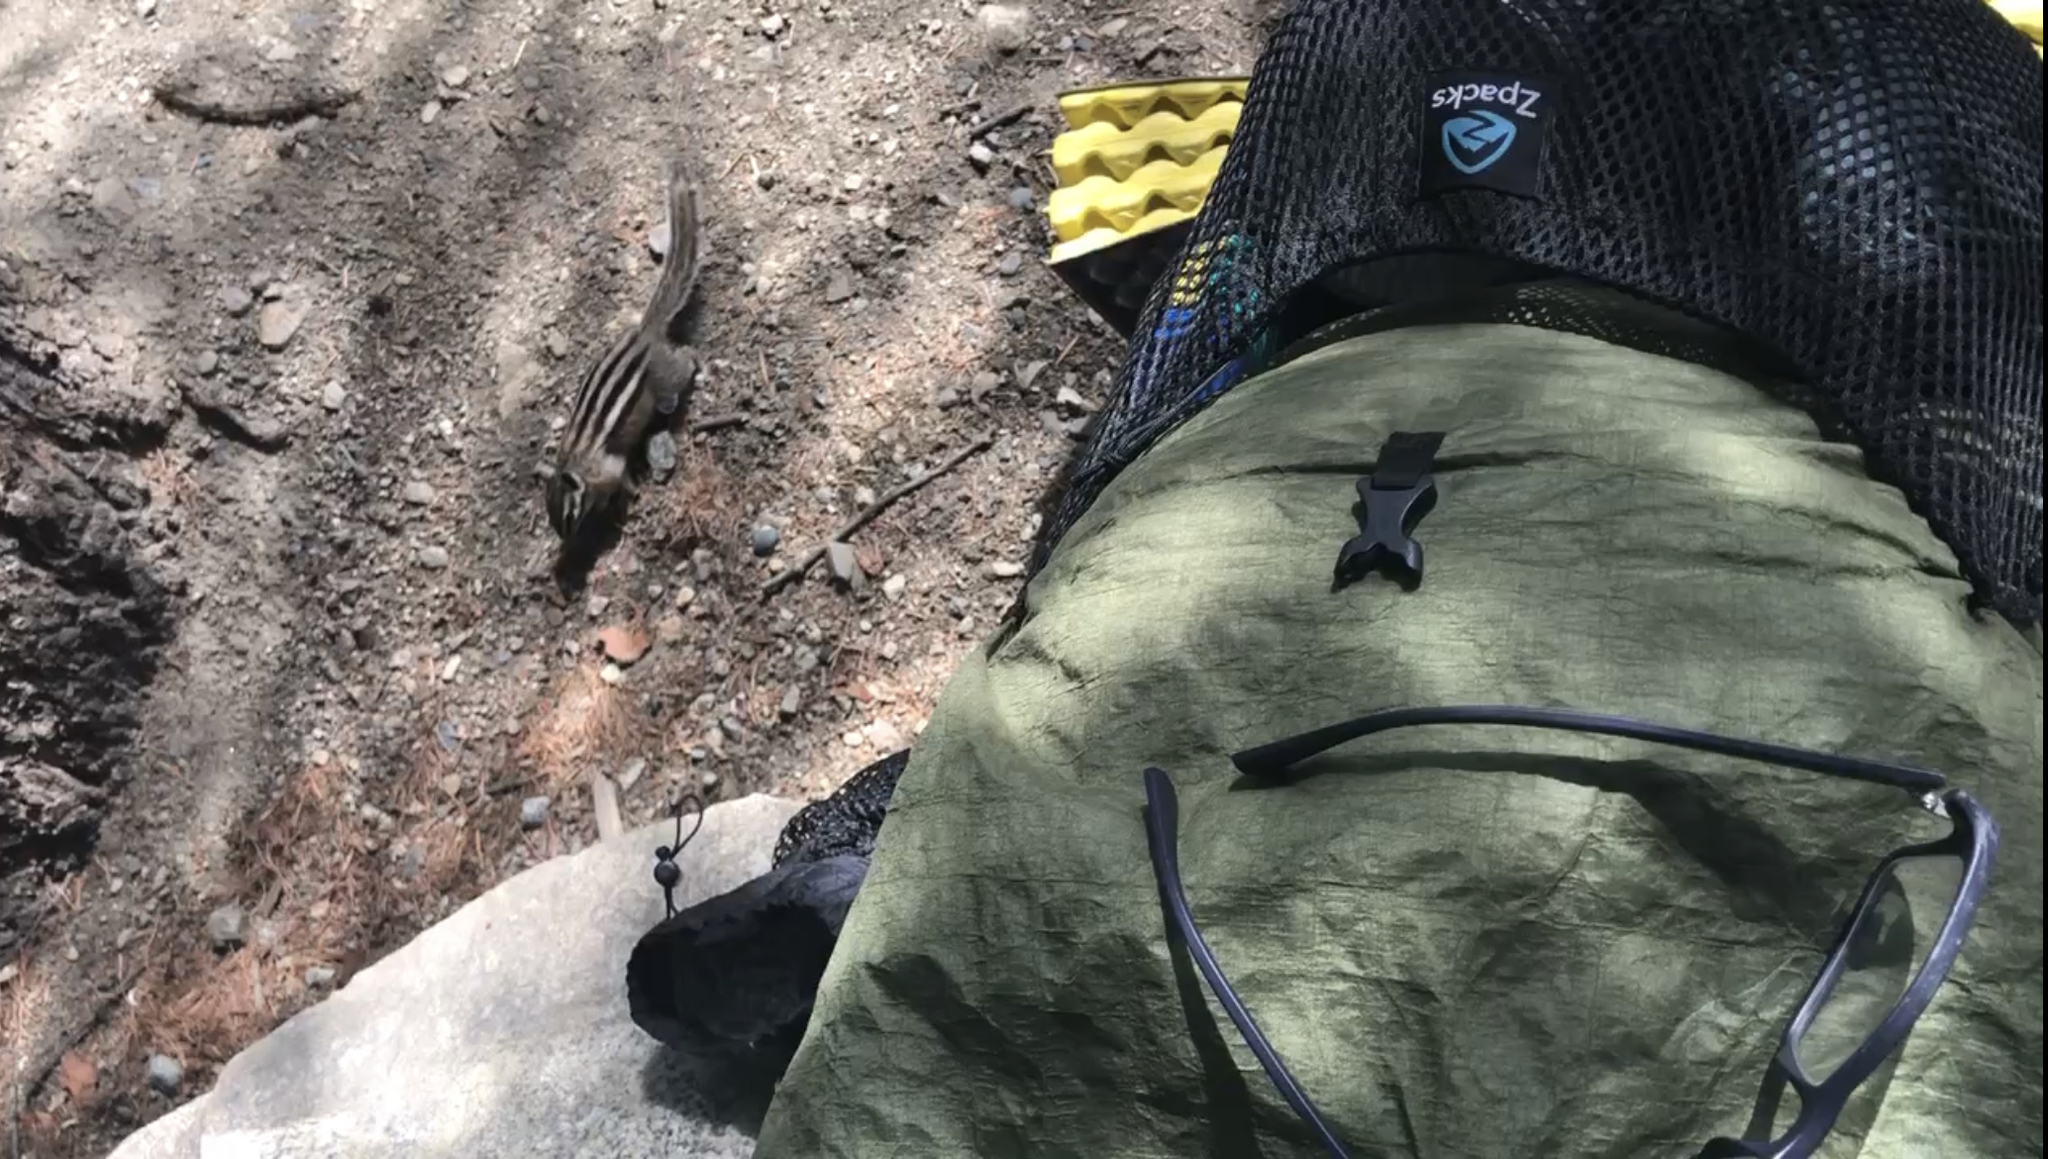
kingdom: Animalia
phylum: Chordata
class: Mammalia
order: Rodentia
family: Sciuridae
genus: Tamias
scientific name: Tamias amoenus
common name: Yellow-pine chipmunk
